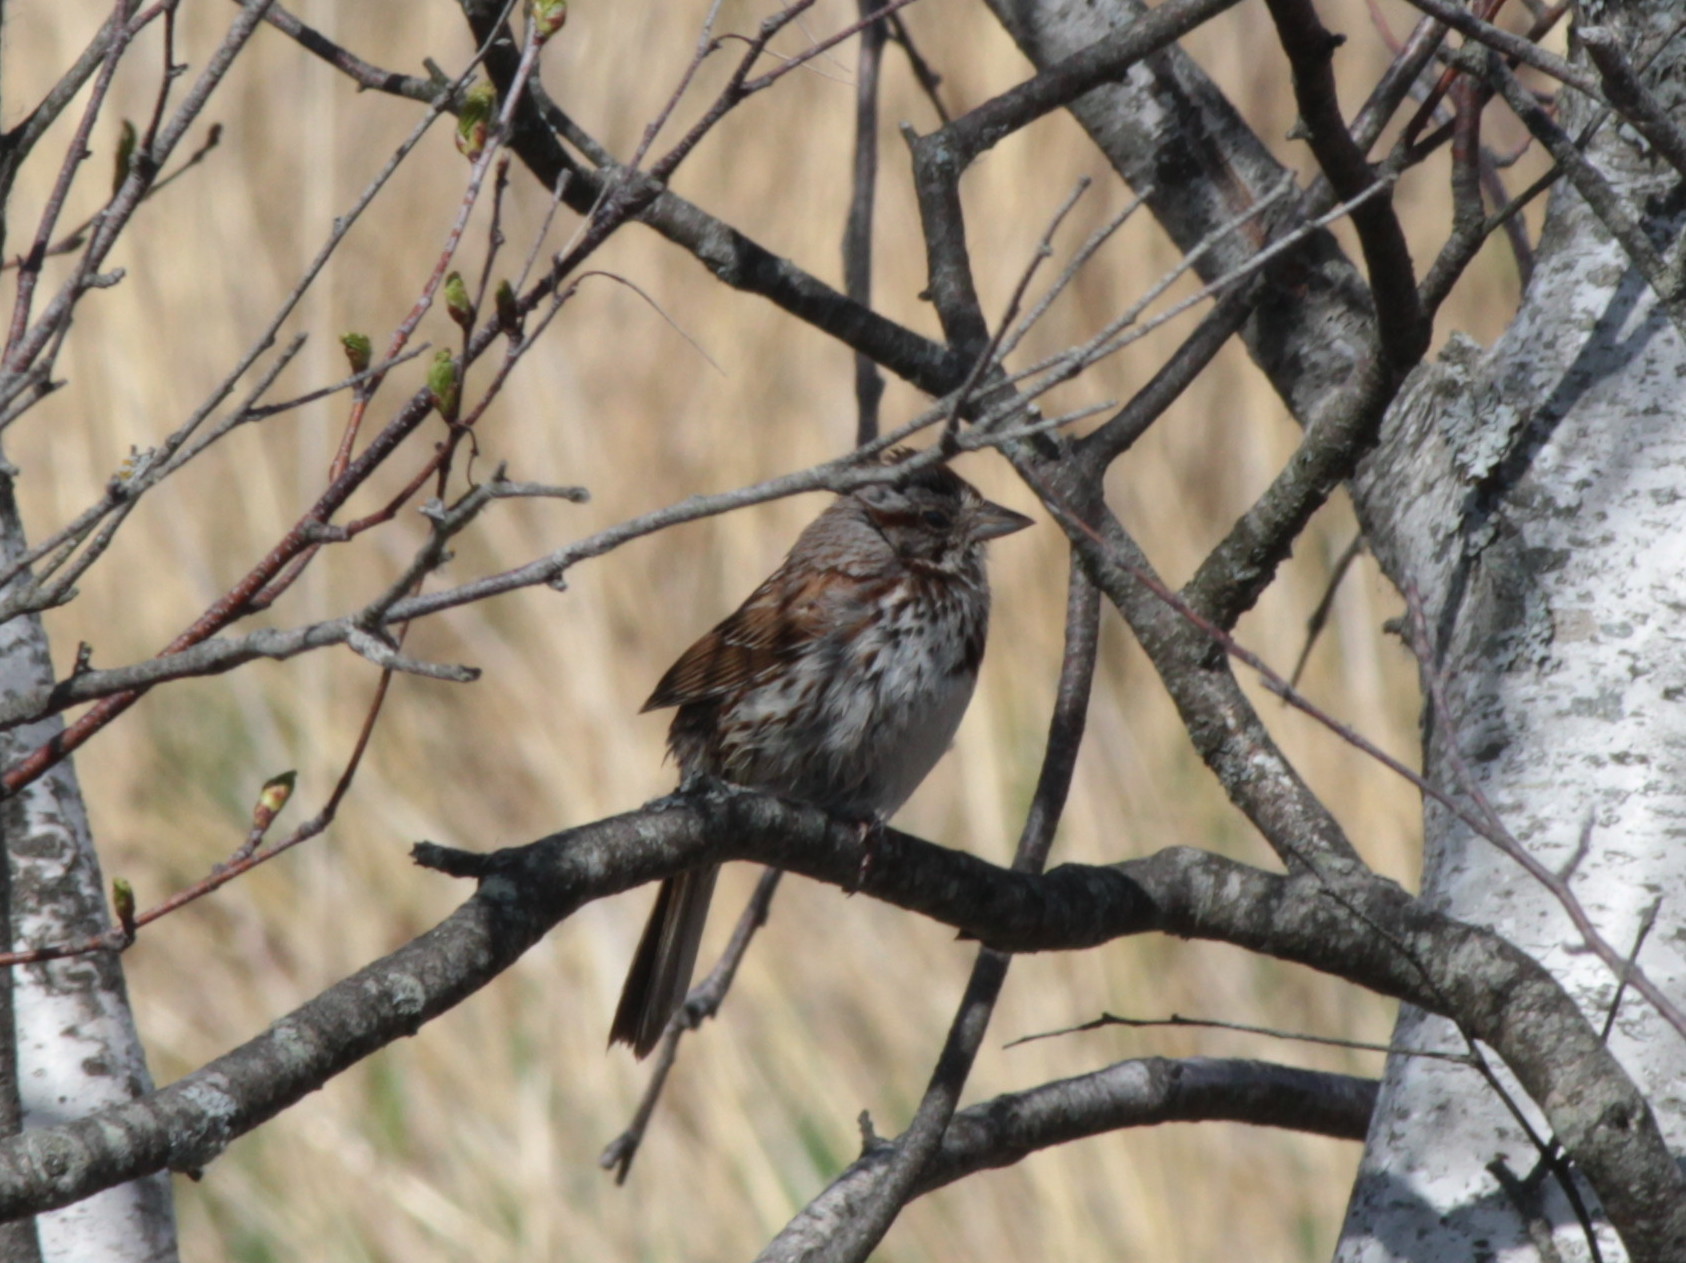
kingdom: Animalia
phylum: Chordata
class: Aves
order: Passeriformes
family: Passerellidae
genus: Melospiza
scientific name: Melospiza melodia
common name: Song sparrow
